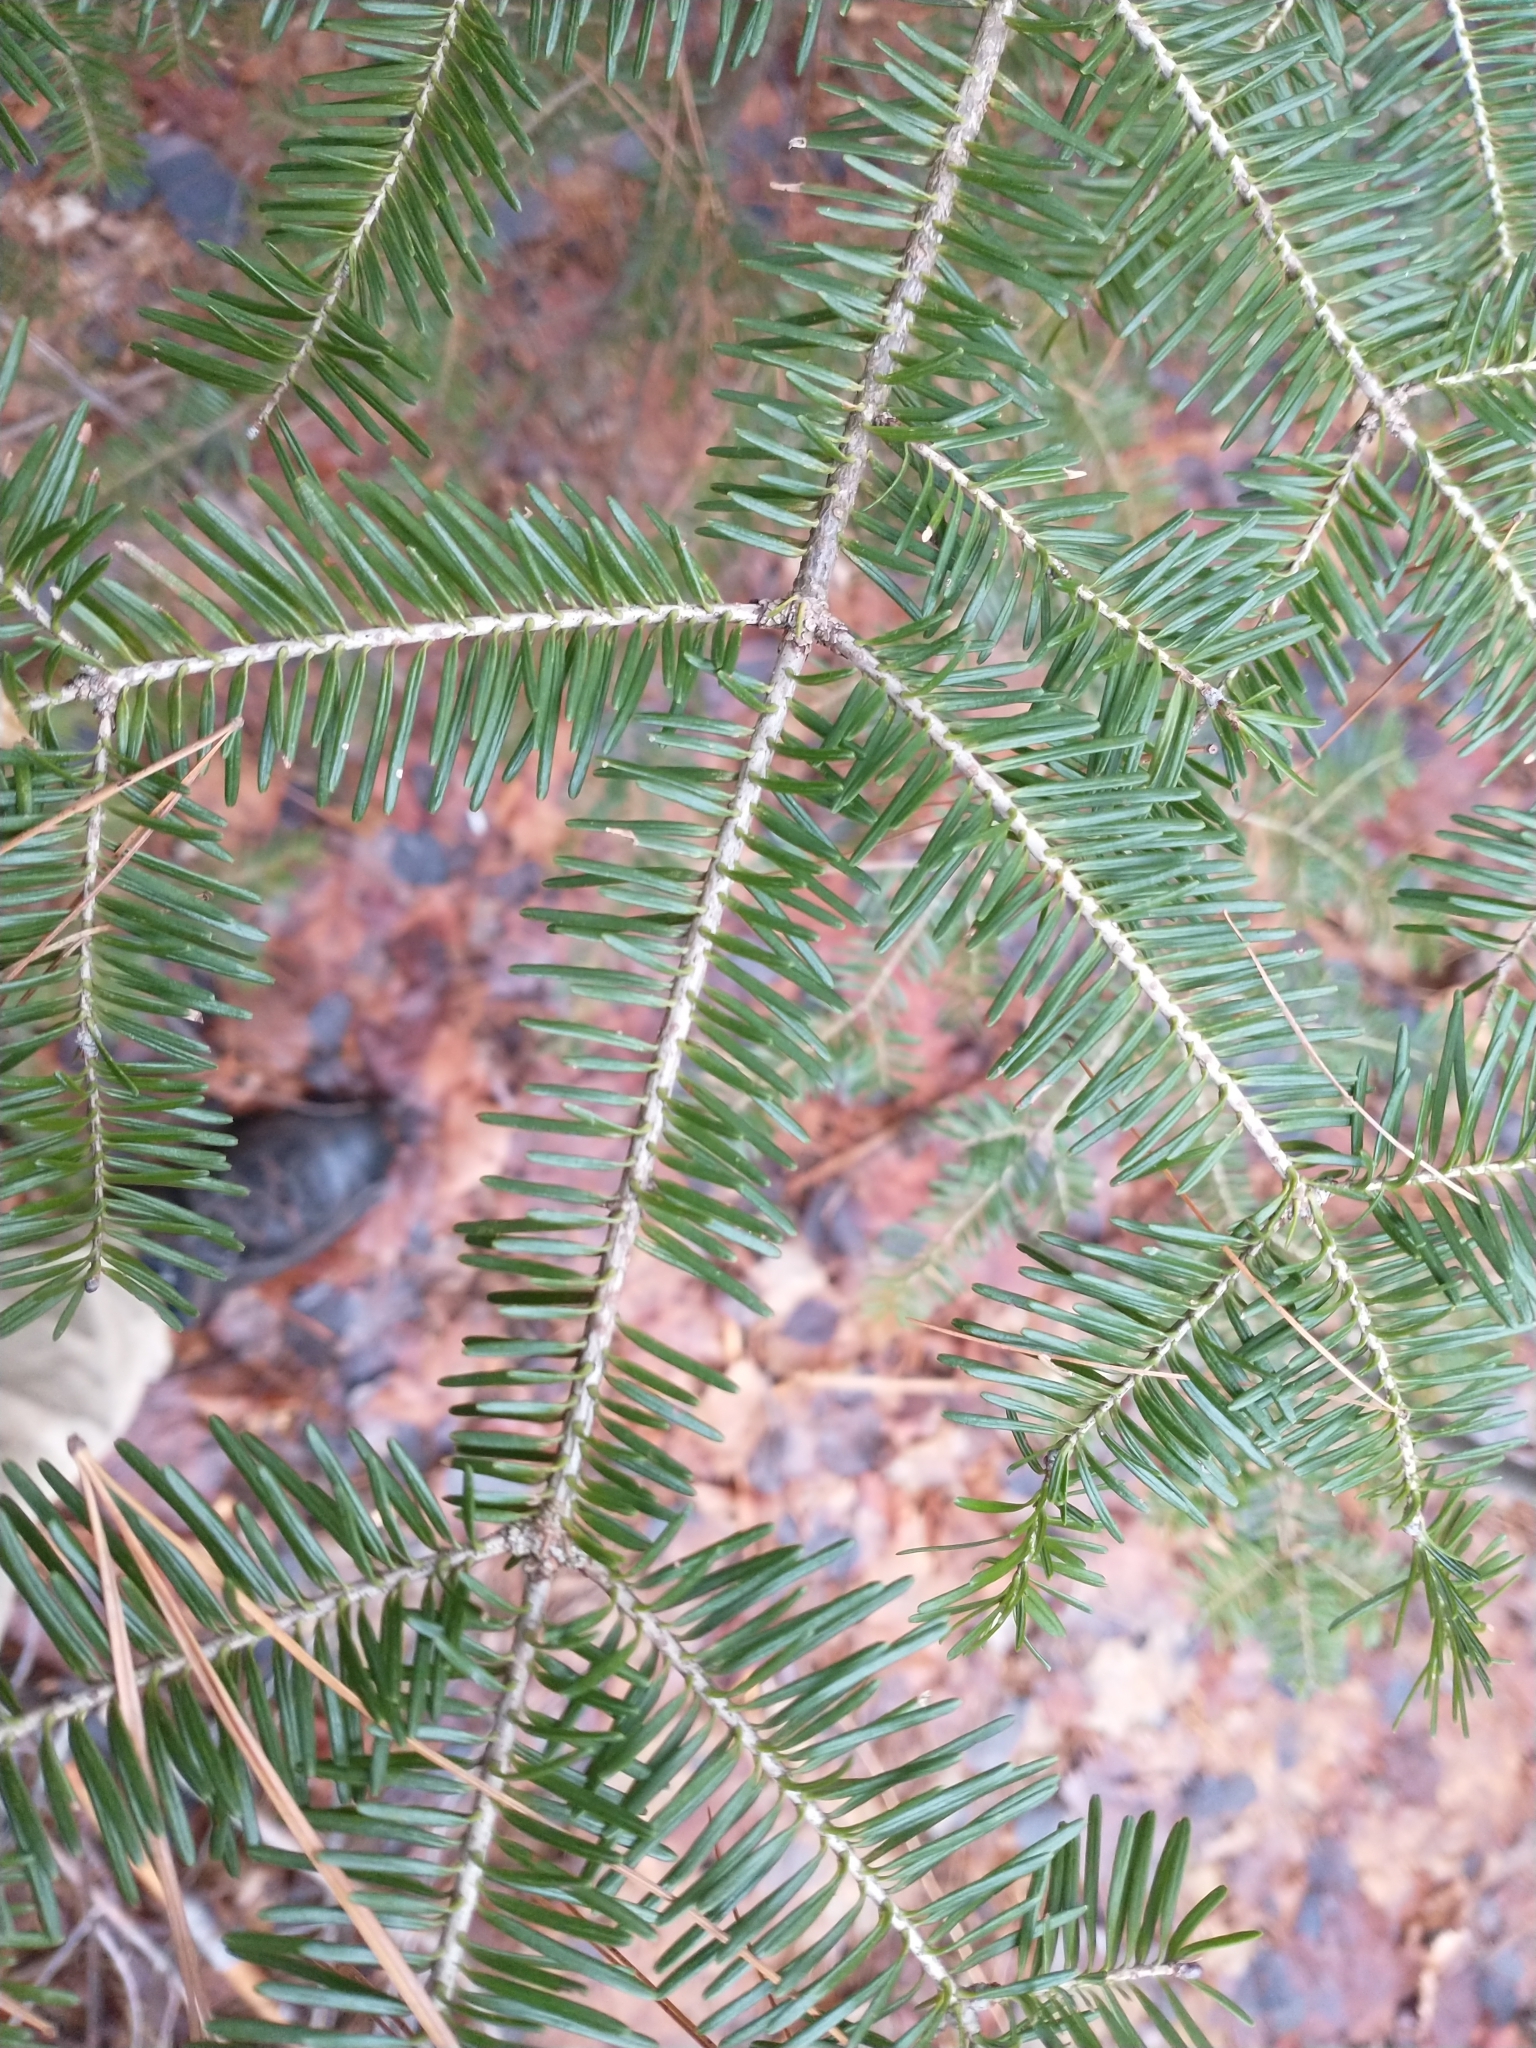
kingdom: Plantae
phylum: Tracheophyta
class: Pinopsida
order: Pinales
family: Pinaceae
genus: Abies
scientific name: Abies balsamea
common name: Balsam fir
